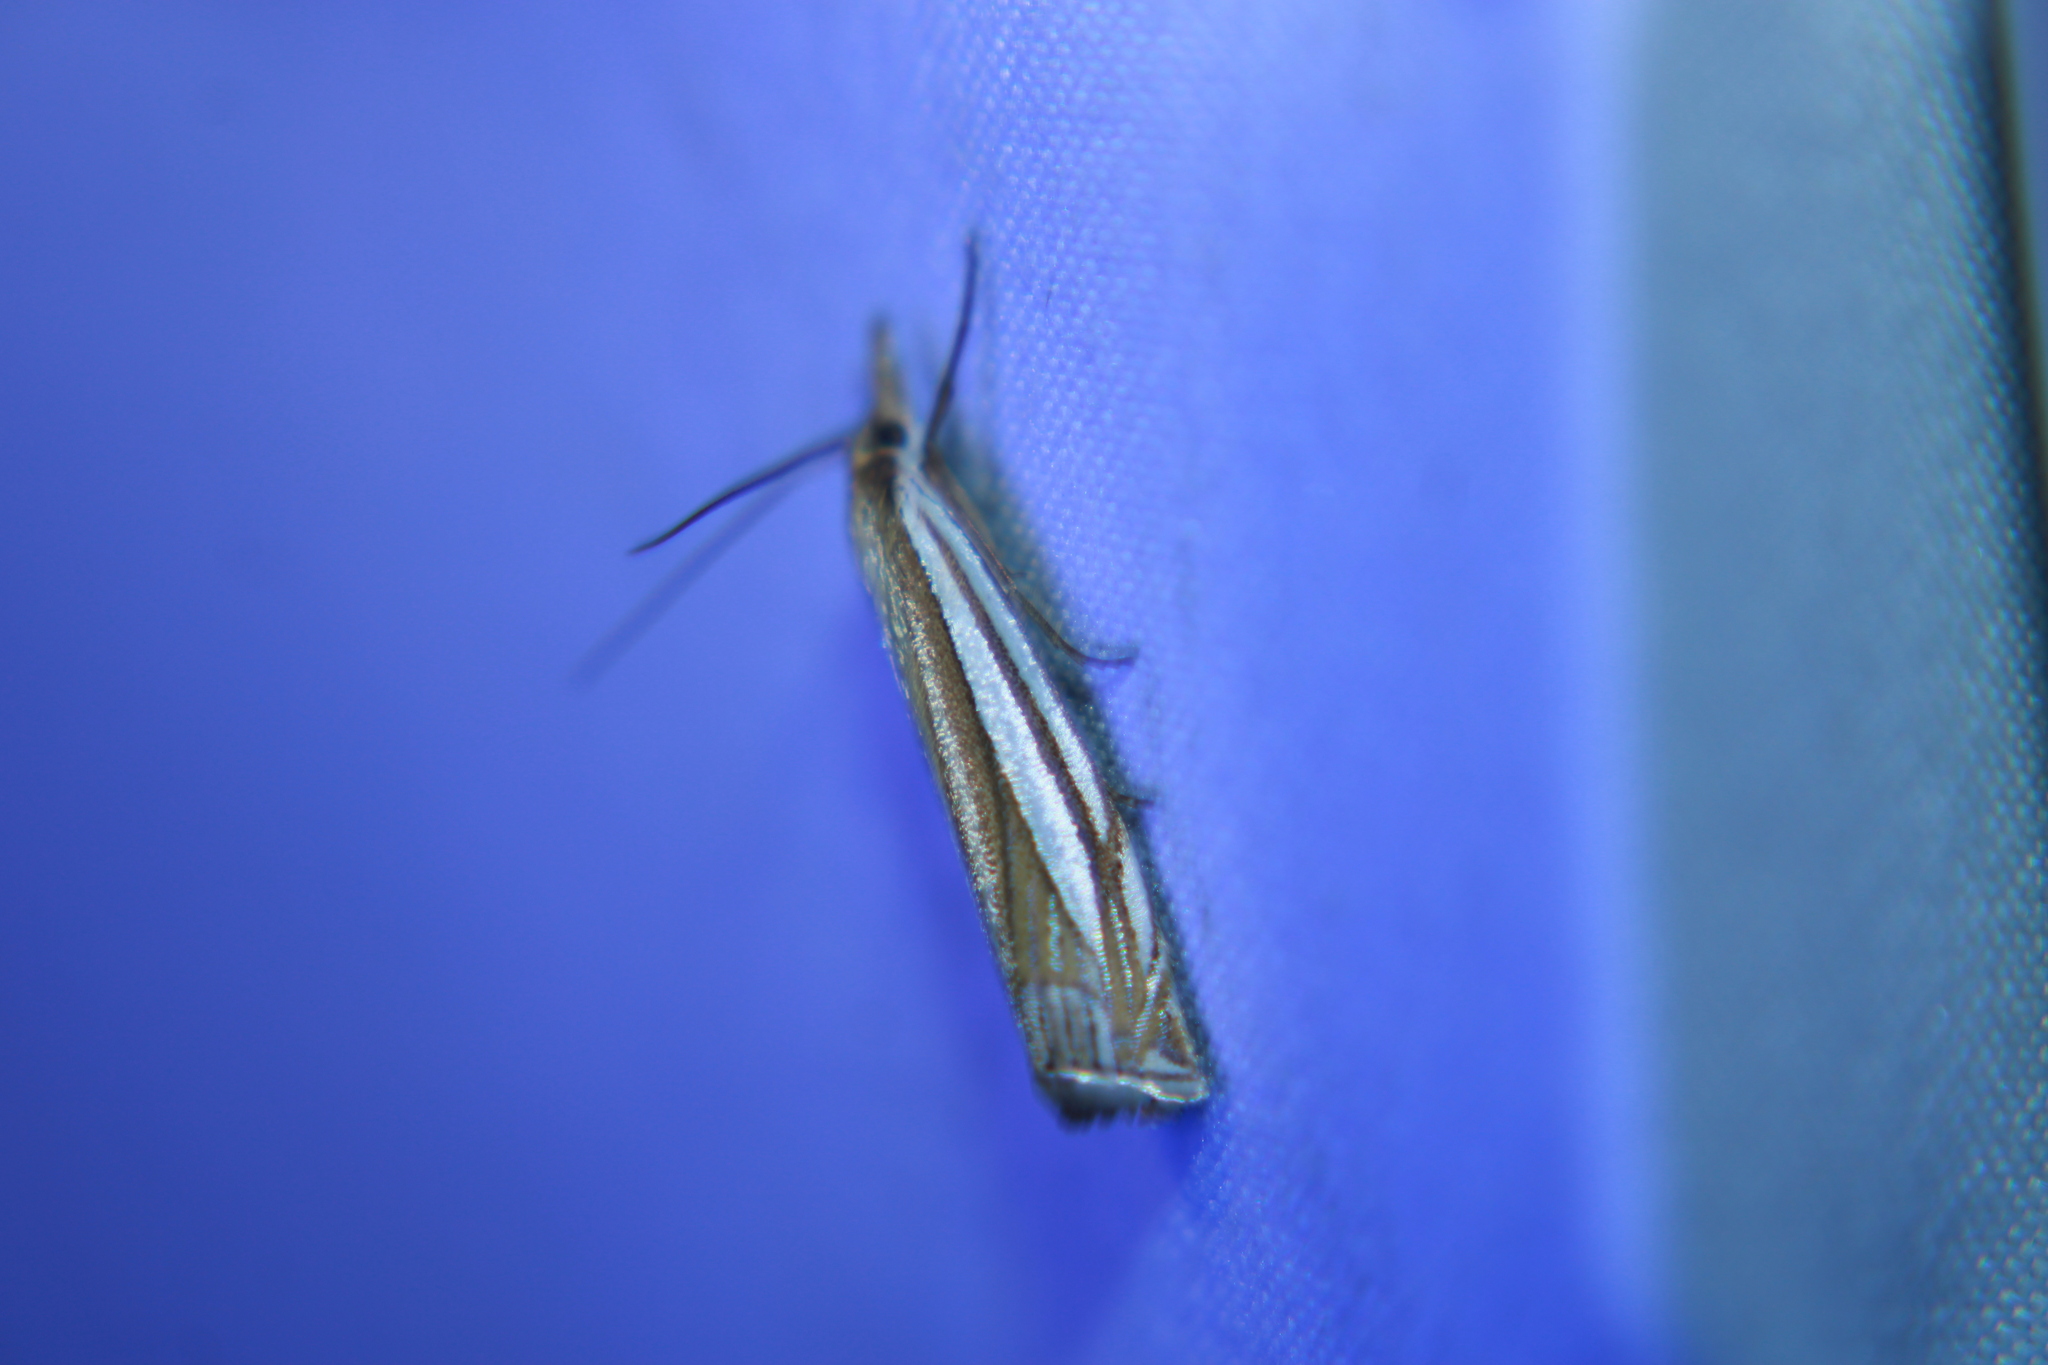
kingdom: Animalia
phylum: Arthropoda
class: Insecta
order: Lepidoptera
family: Crambidae
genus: Crambus
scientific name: Crambus laqueatellus
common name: Eastern grass-veneer
